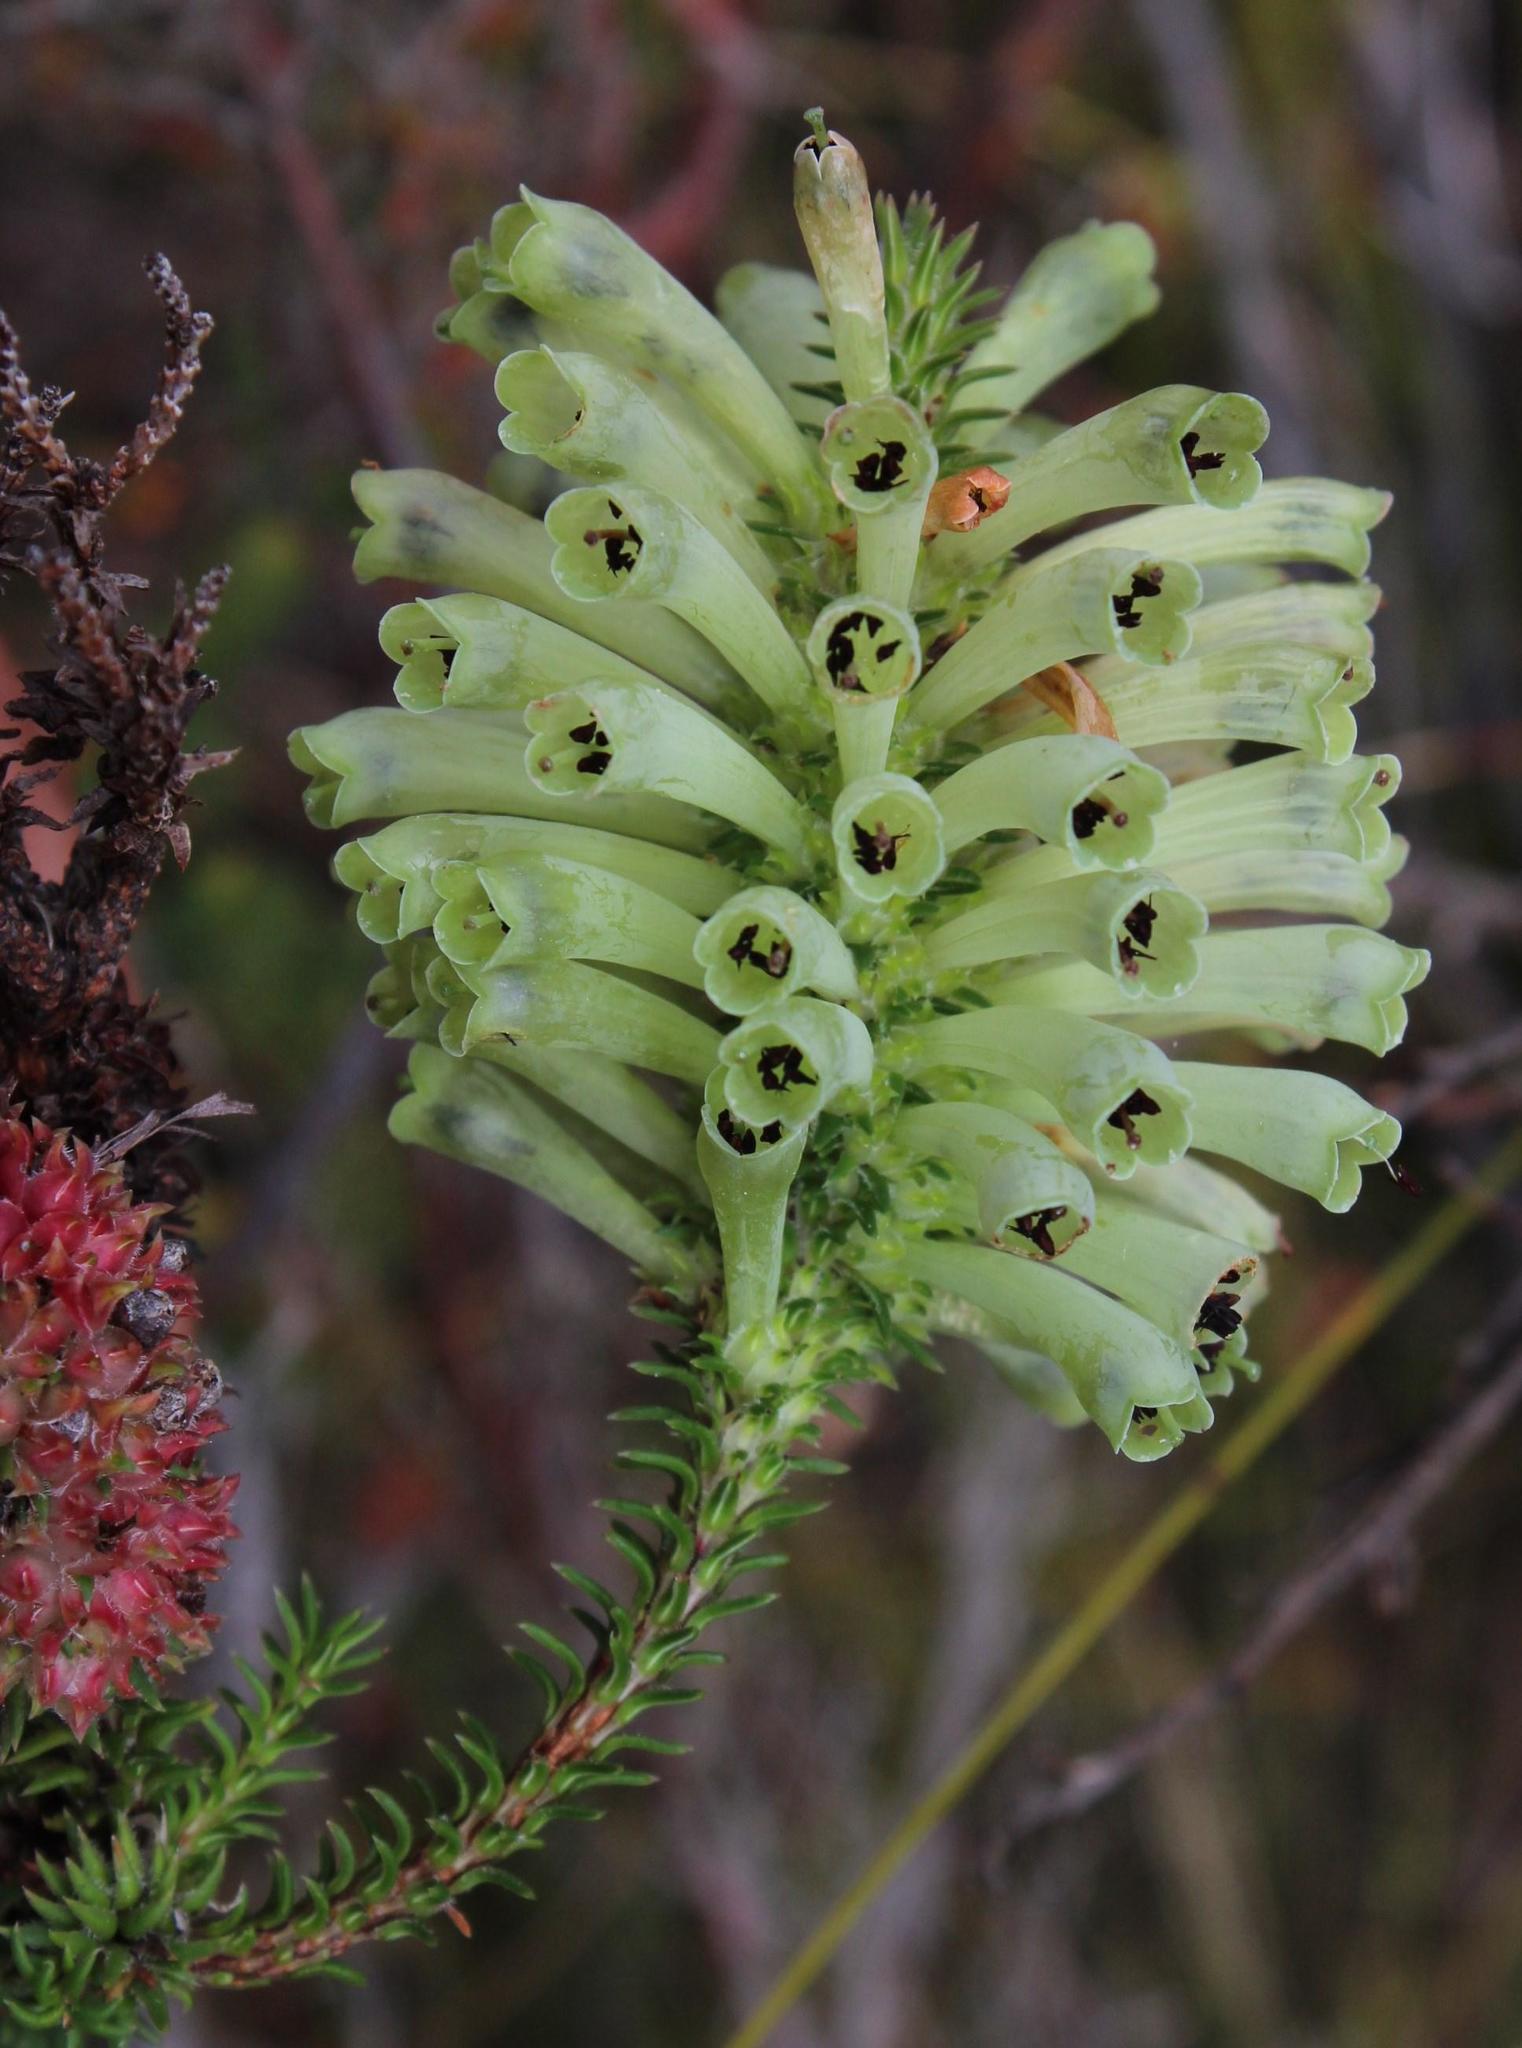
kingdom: Plantae
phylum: Tracheophyta
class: Magnoliopsida
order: Ericales
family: Ericaceae
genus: Erica
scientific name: Erica sessiliflora
